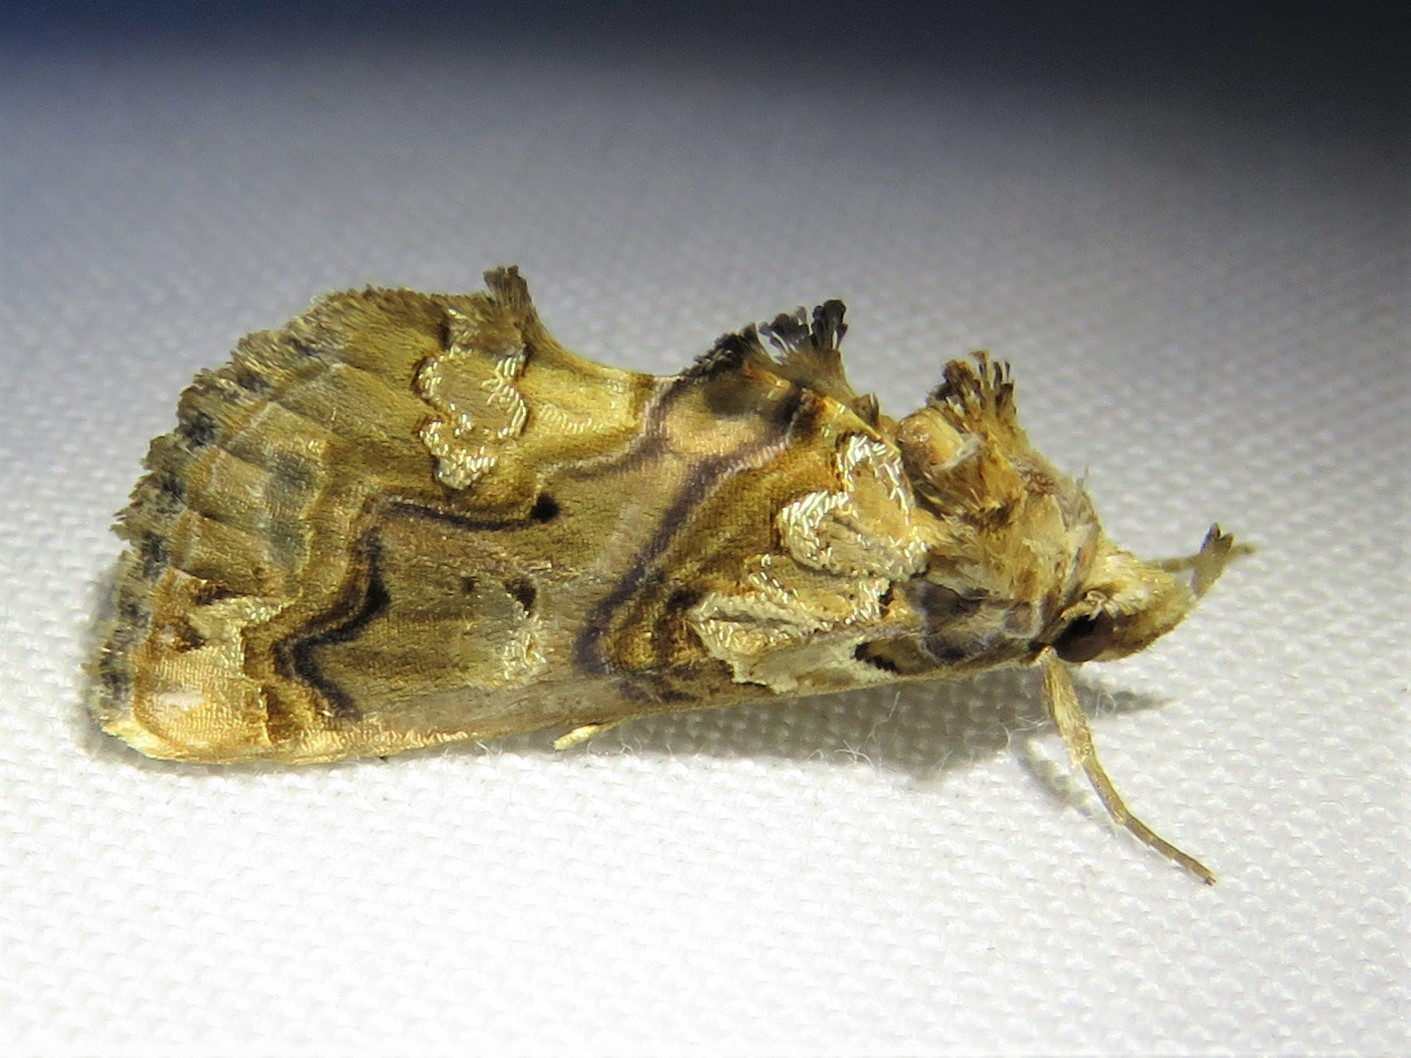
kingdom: Animalia
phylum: Arthropoda
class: Insecta
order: Lepidoptera
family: Erebidae
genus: Plusiodonta
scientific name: Plusiodonta compressipalpis
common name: Moonseed moth
